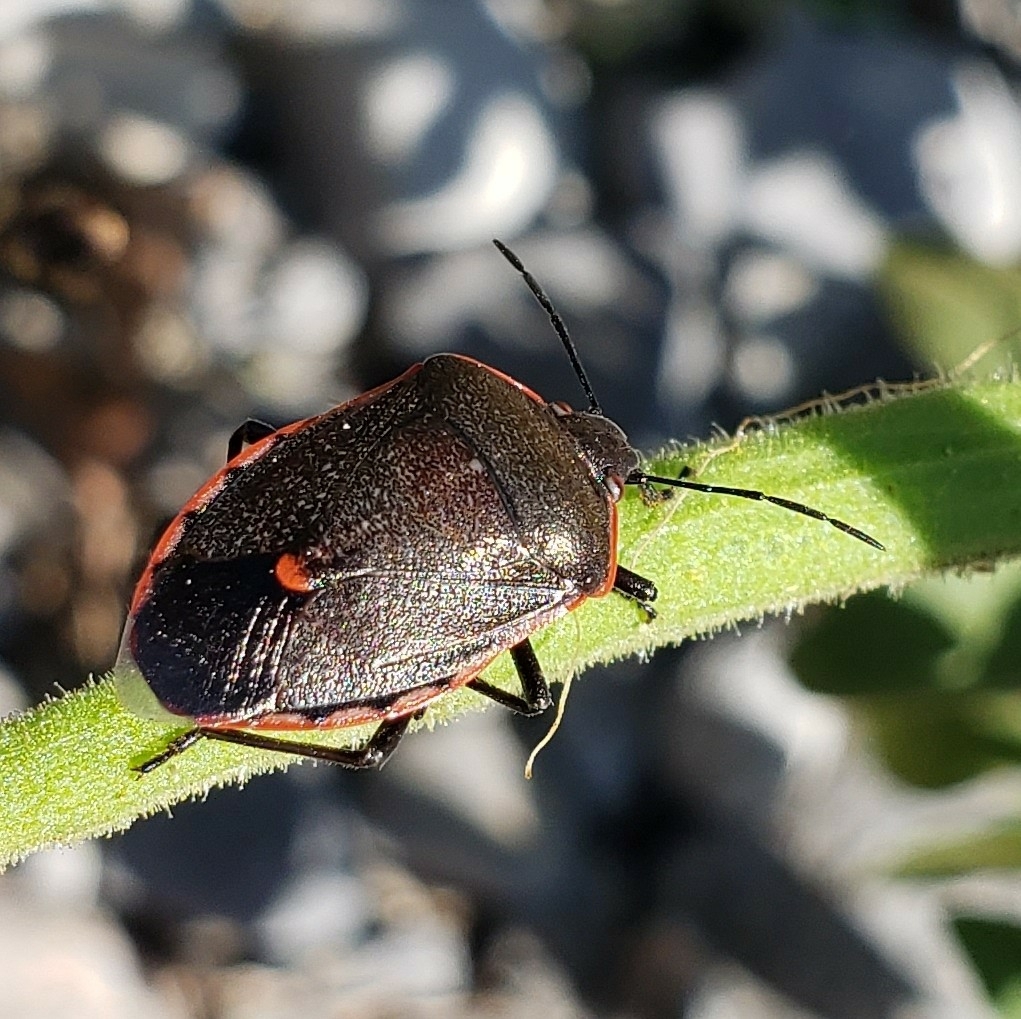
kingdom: Animalia
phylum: Arthropoda
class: Insecta
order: Hemiptera
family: Pentatomidae
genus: Chlorochroa
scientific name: Chlorochroa ligata
